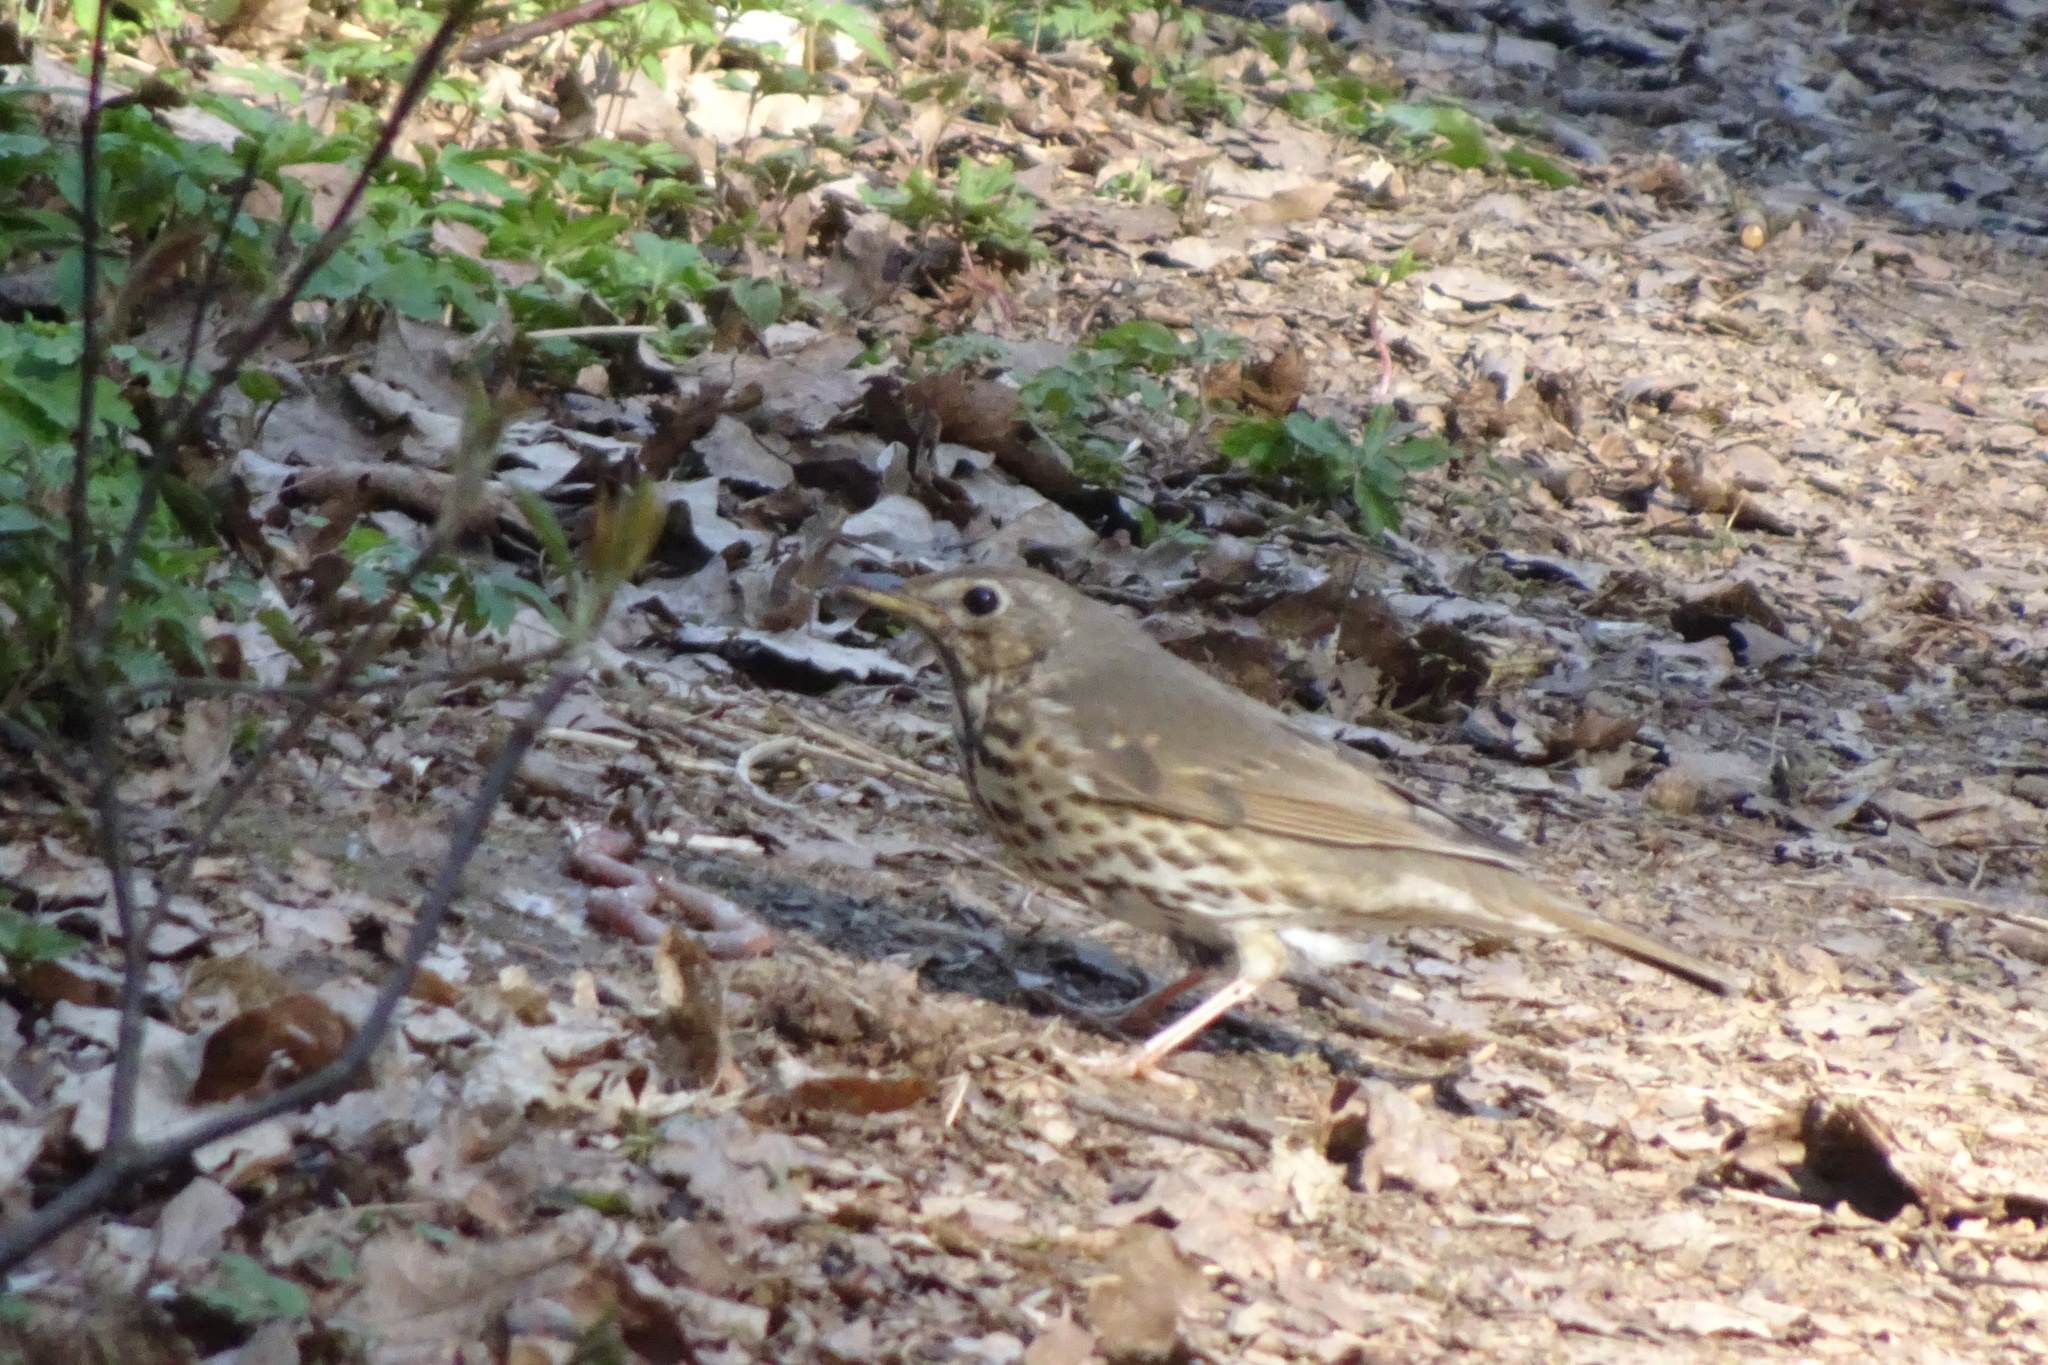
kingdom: Animalia
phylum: Chordata
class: Aves
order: Passeriformes
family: Turdidae
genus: Turdus
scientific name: Turdus philomelos
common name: Song thrush
